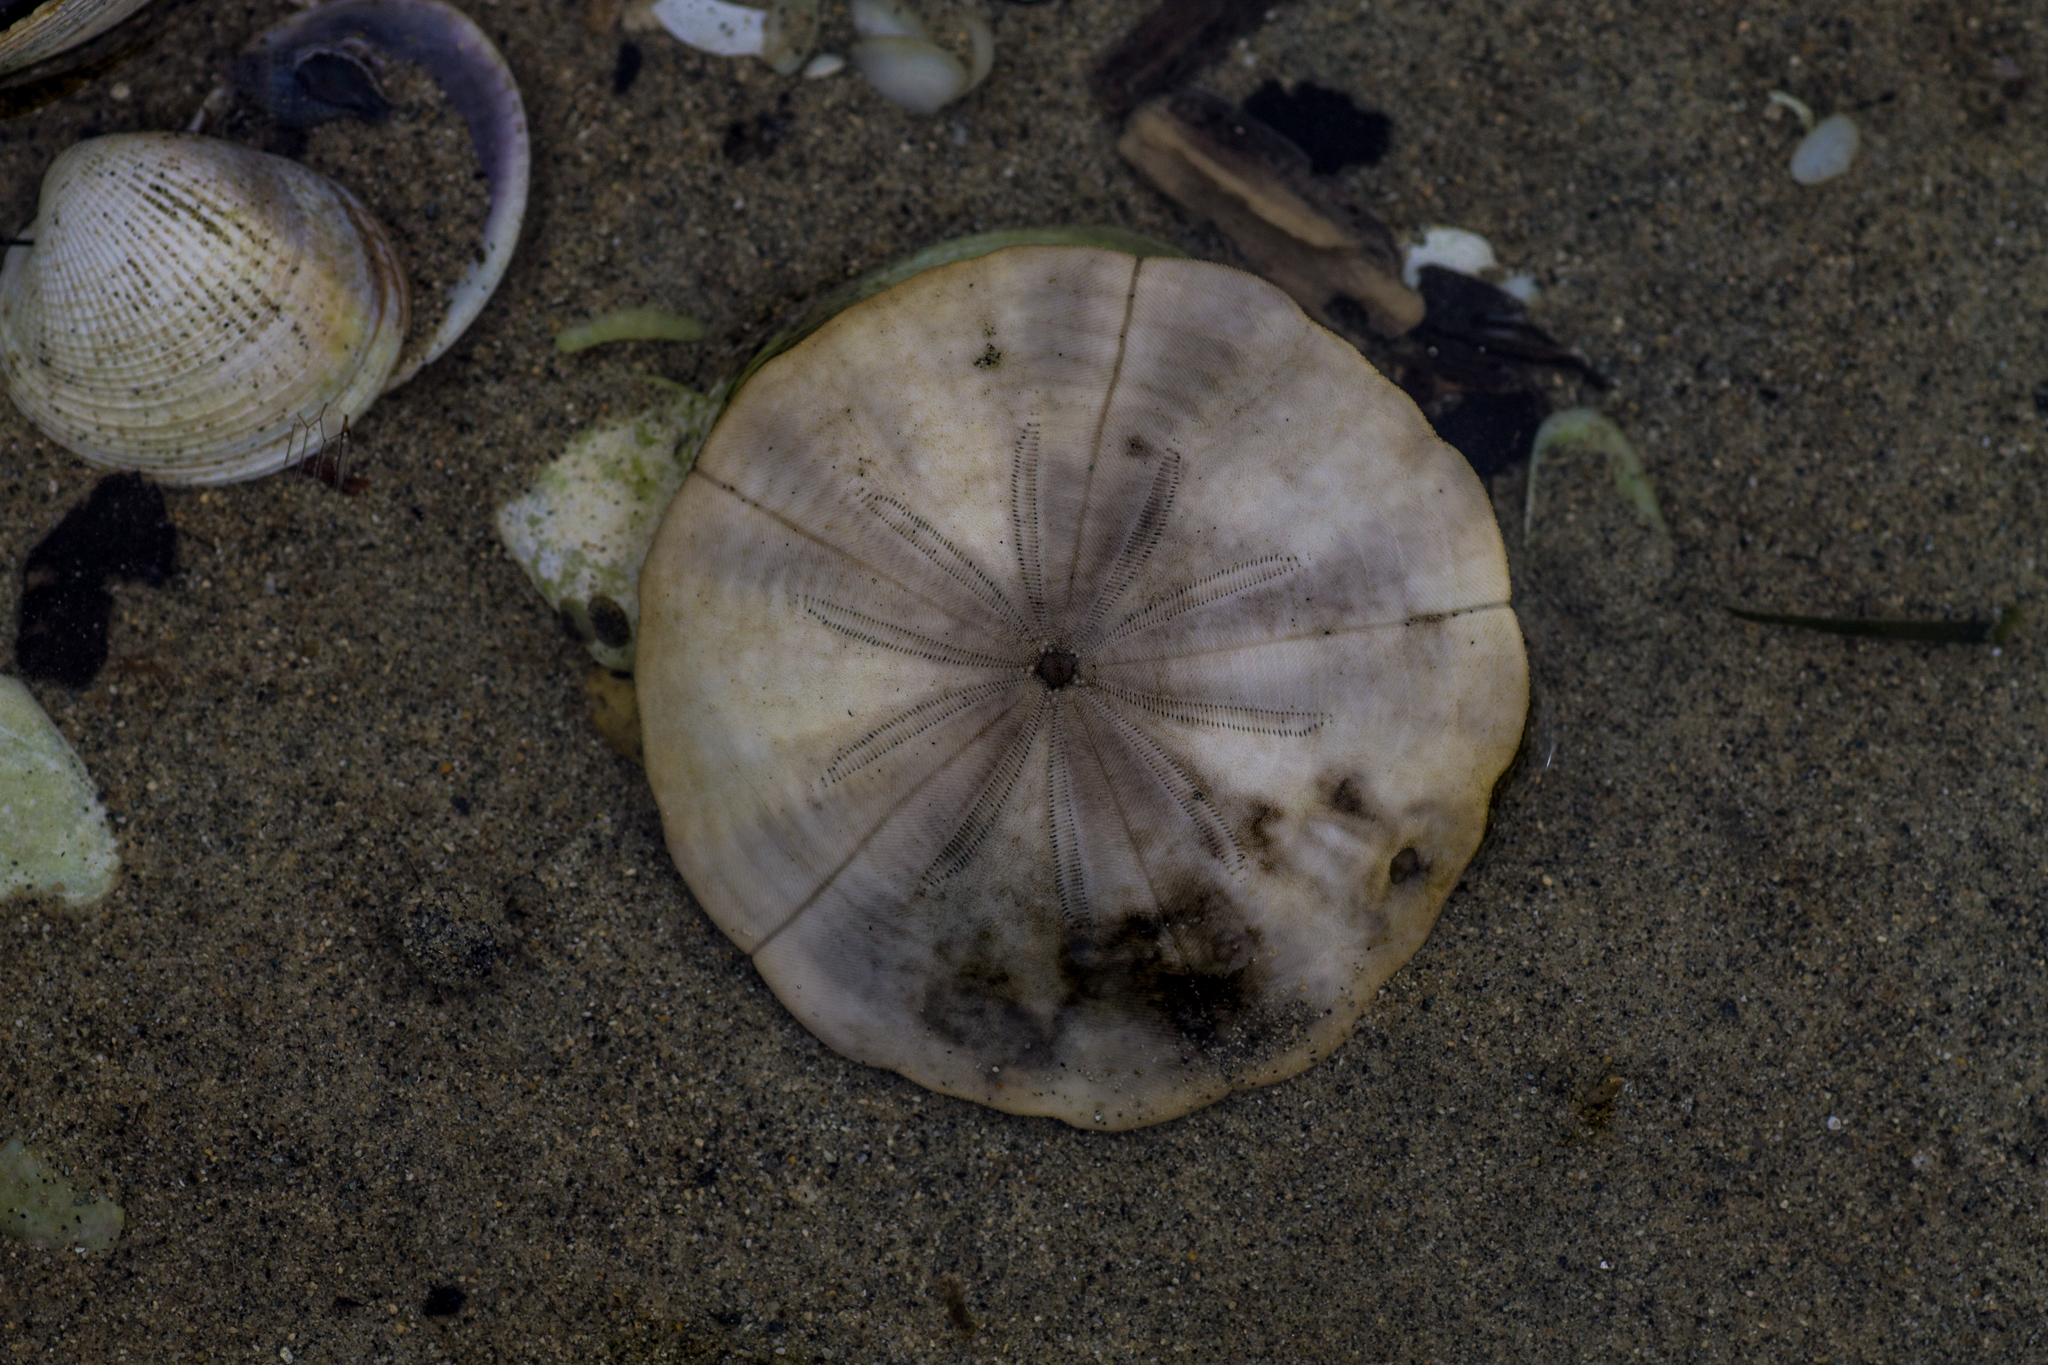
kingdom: Animalia
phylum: Echinodermata
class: Echinoidea
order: Clypeasteroida
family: Clypeasteridae
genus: Fellaster
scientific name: Fellaster zelandiae
